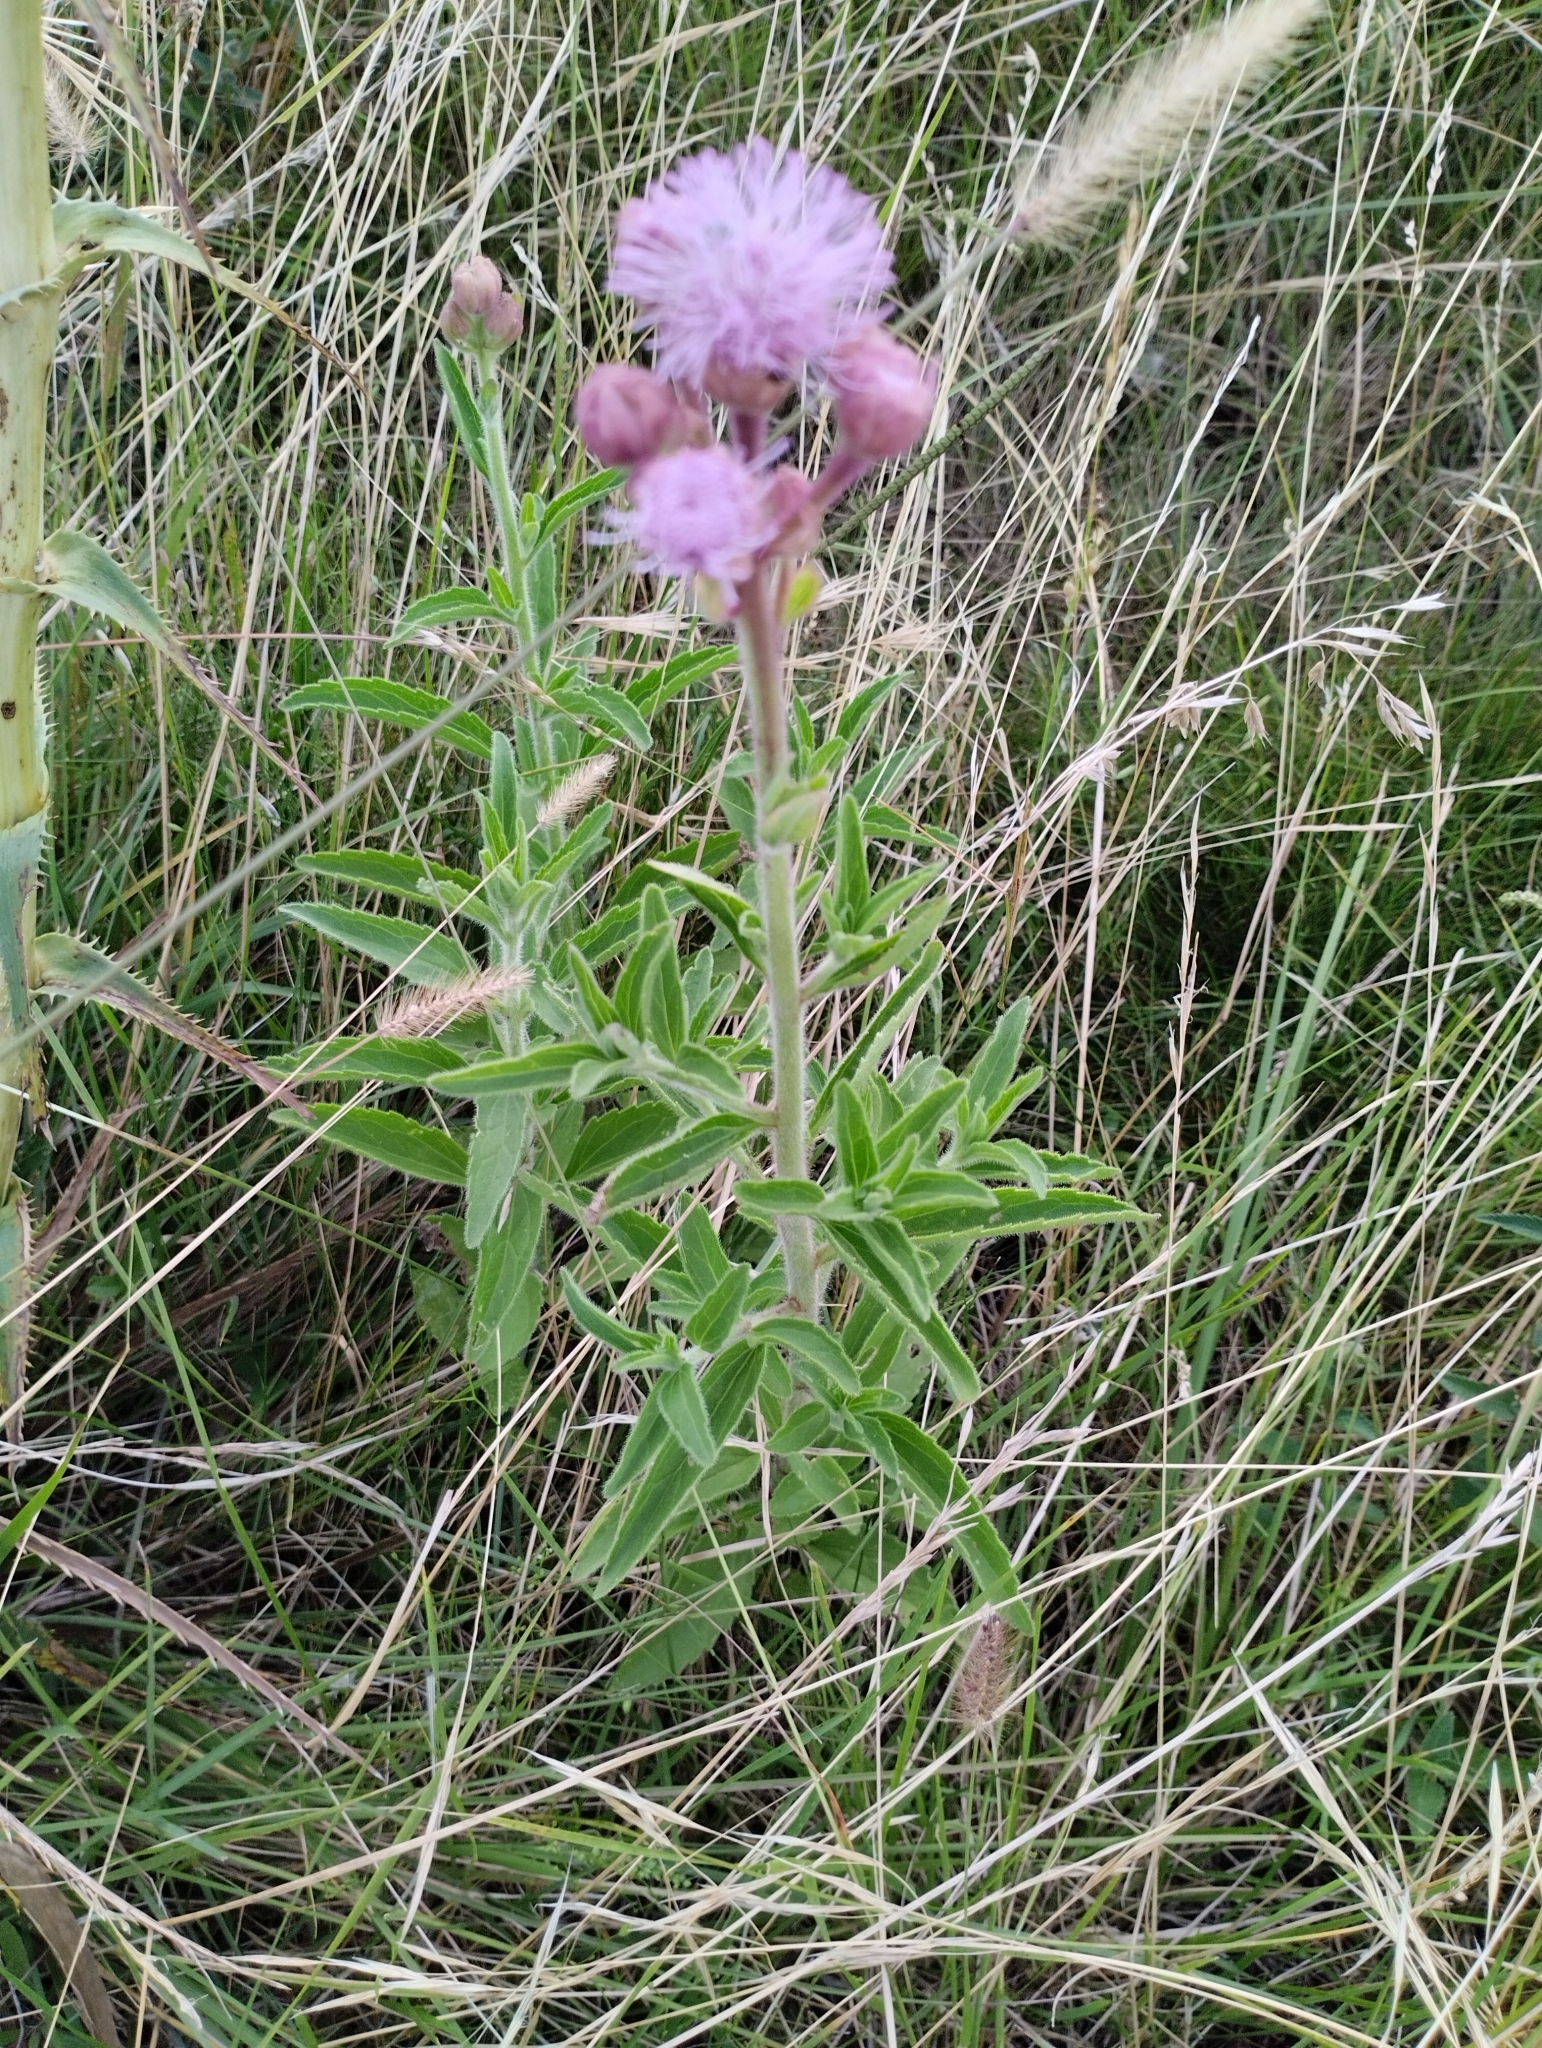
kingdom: Plantae
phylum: Tracheophyta
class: Magnoliopsida
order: Asterales
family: Asteraceae
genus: Campuloclinium
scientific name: Campuloclinium macrocephalum
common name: Pompomweed
